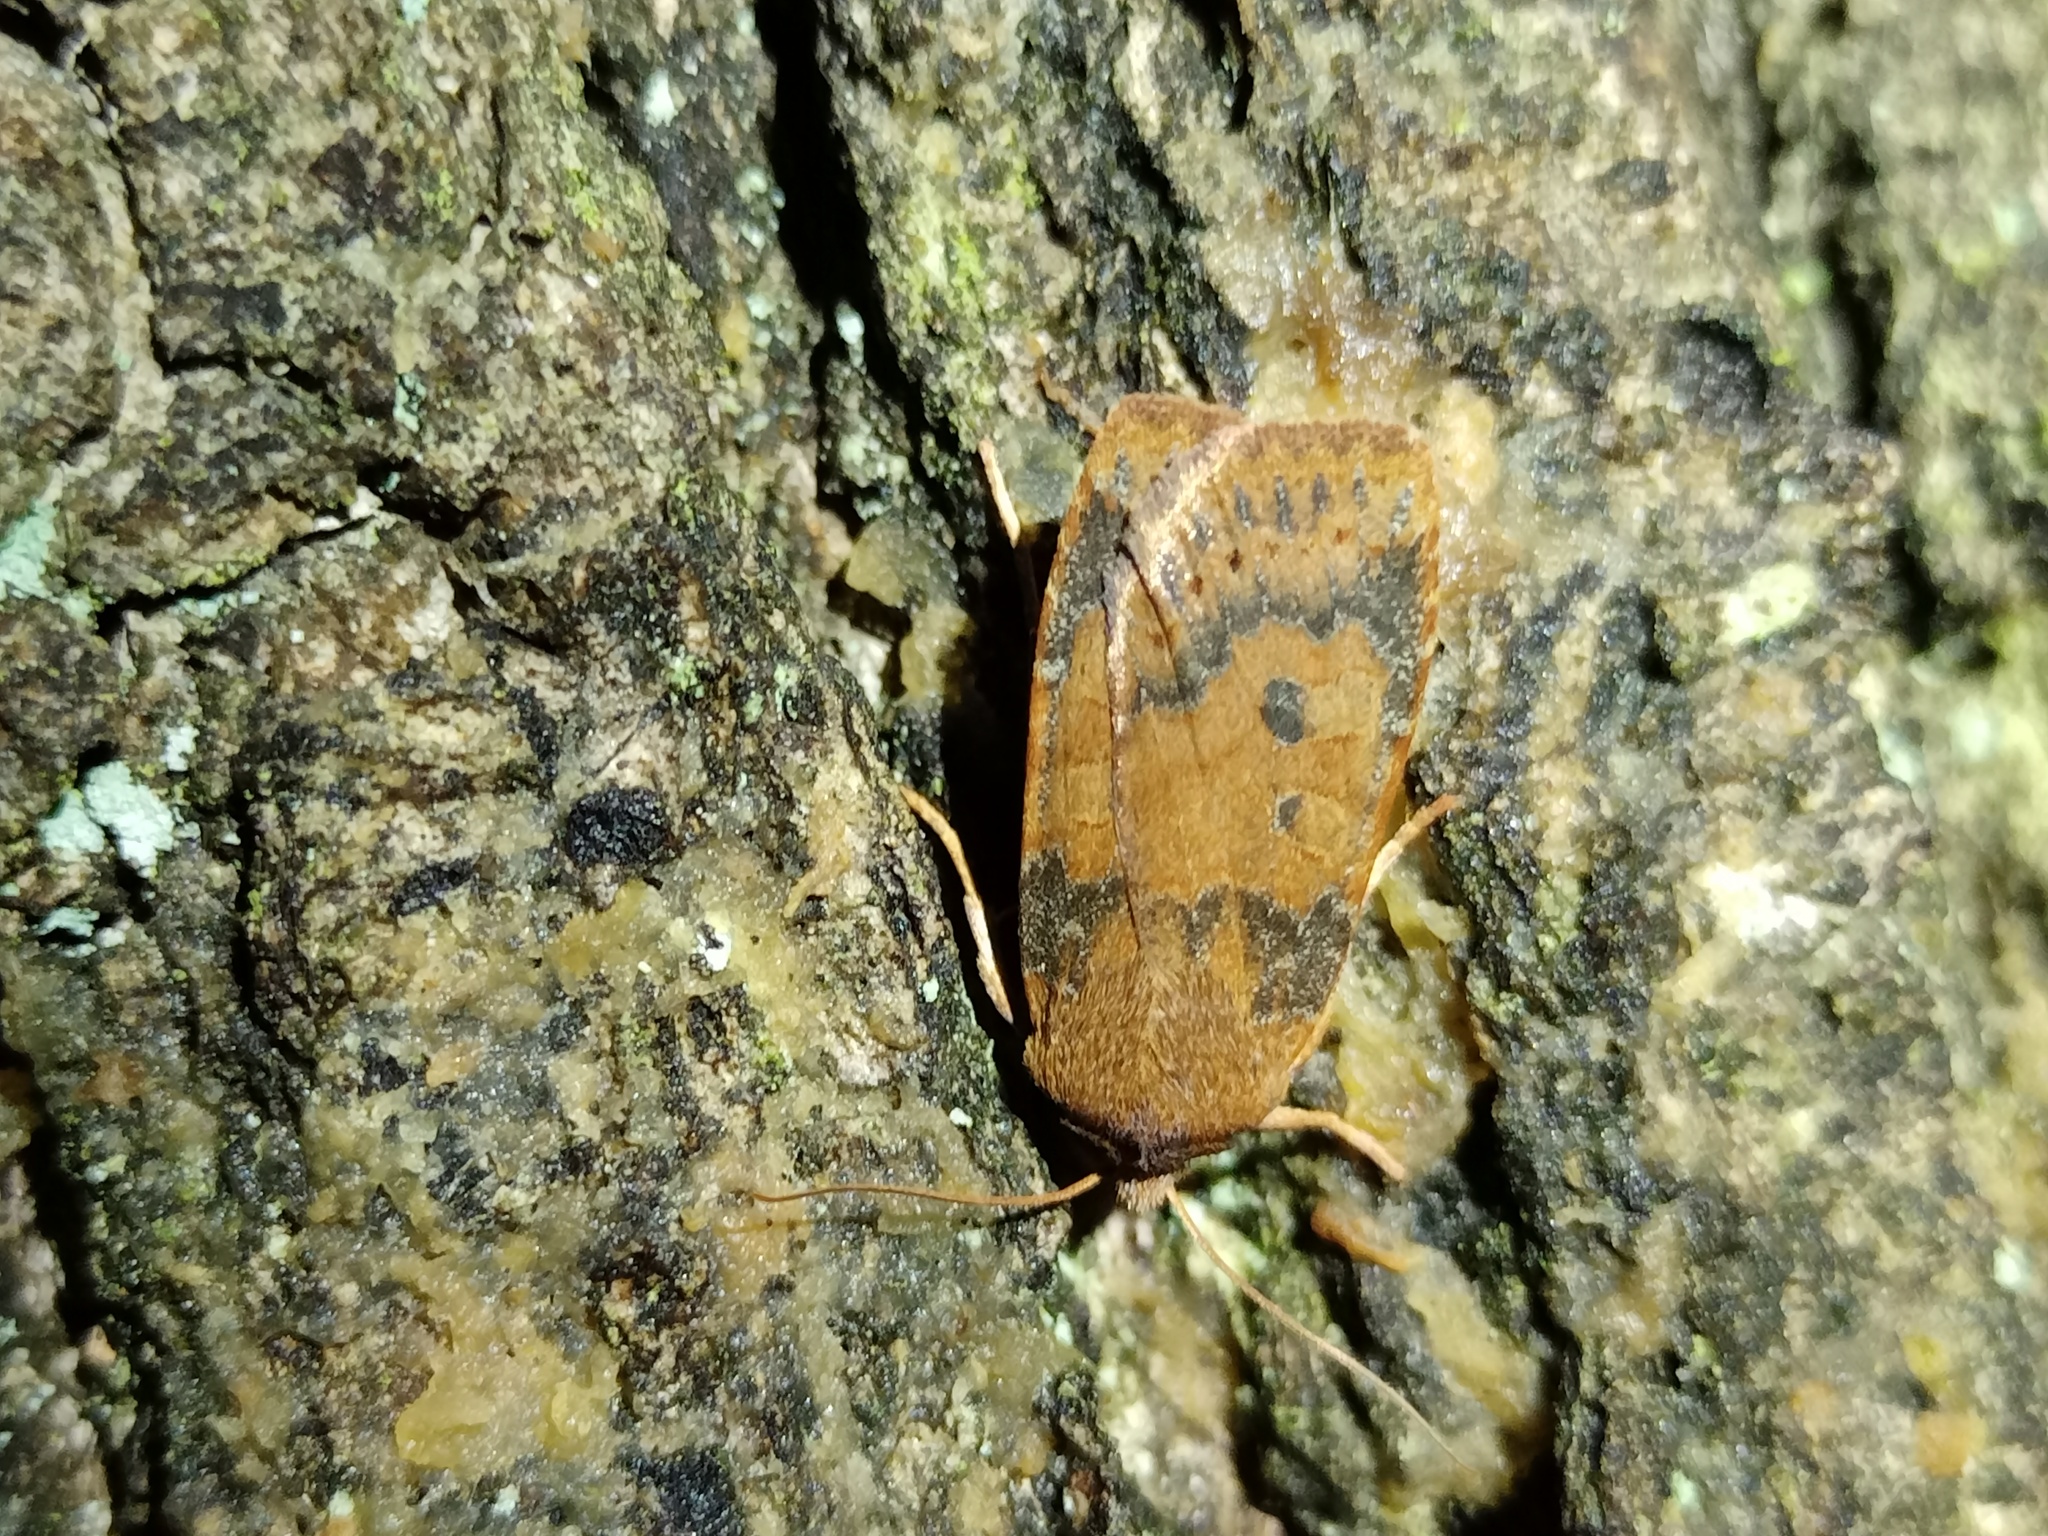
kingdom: Animalia
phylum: Arthropoda
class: Insecta
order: Lepidoptera
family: Noctuidae
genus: Conistra
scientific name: Conistra vaccinii
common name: Chestnut
